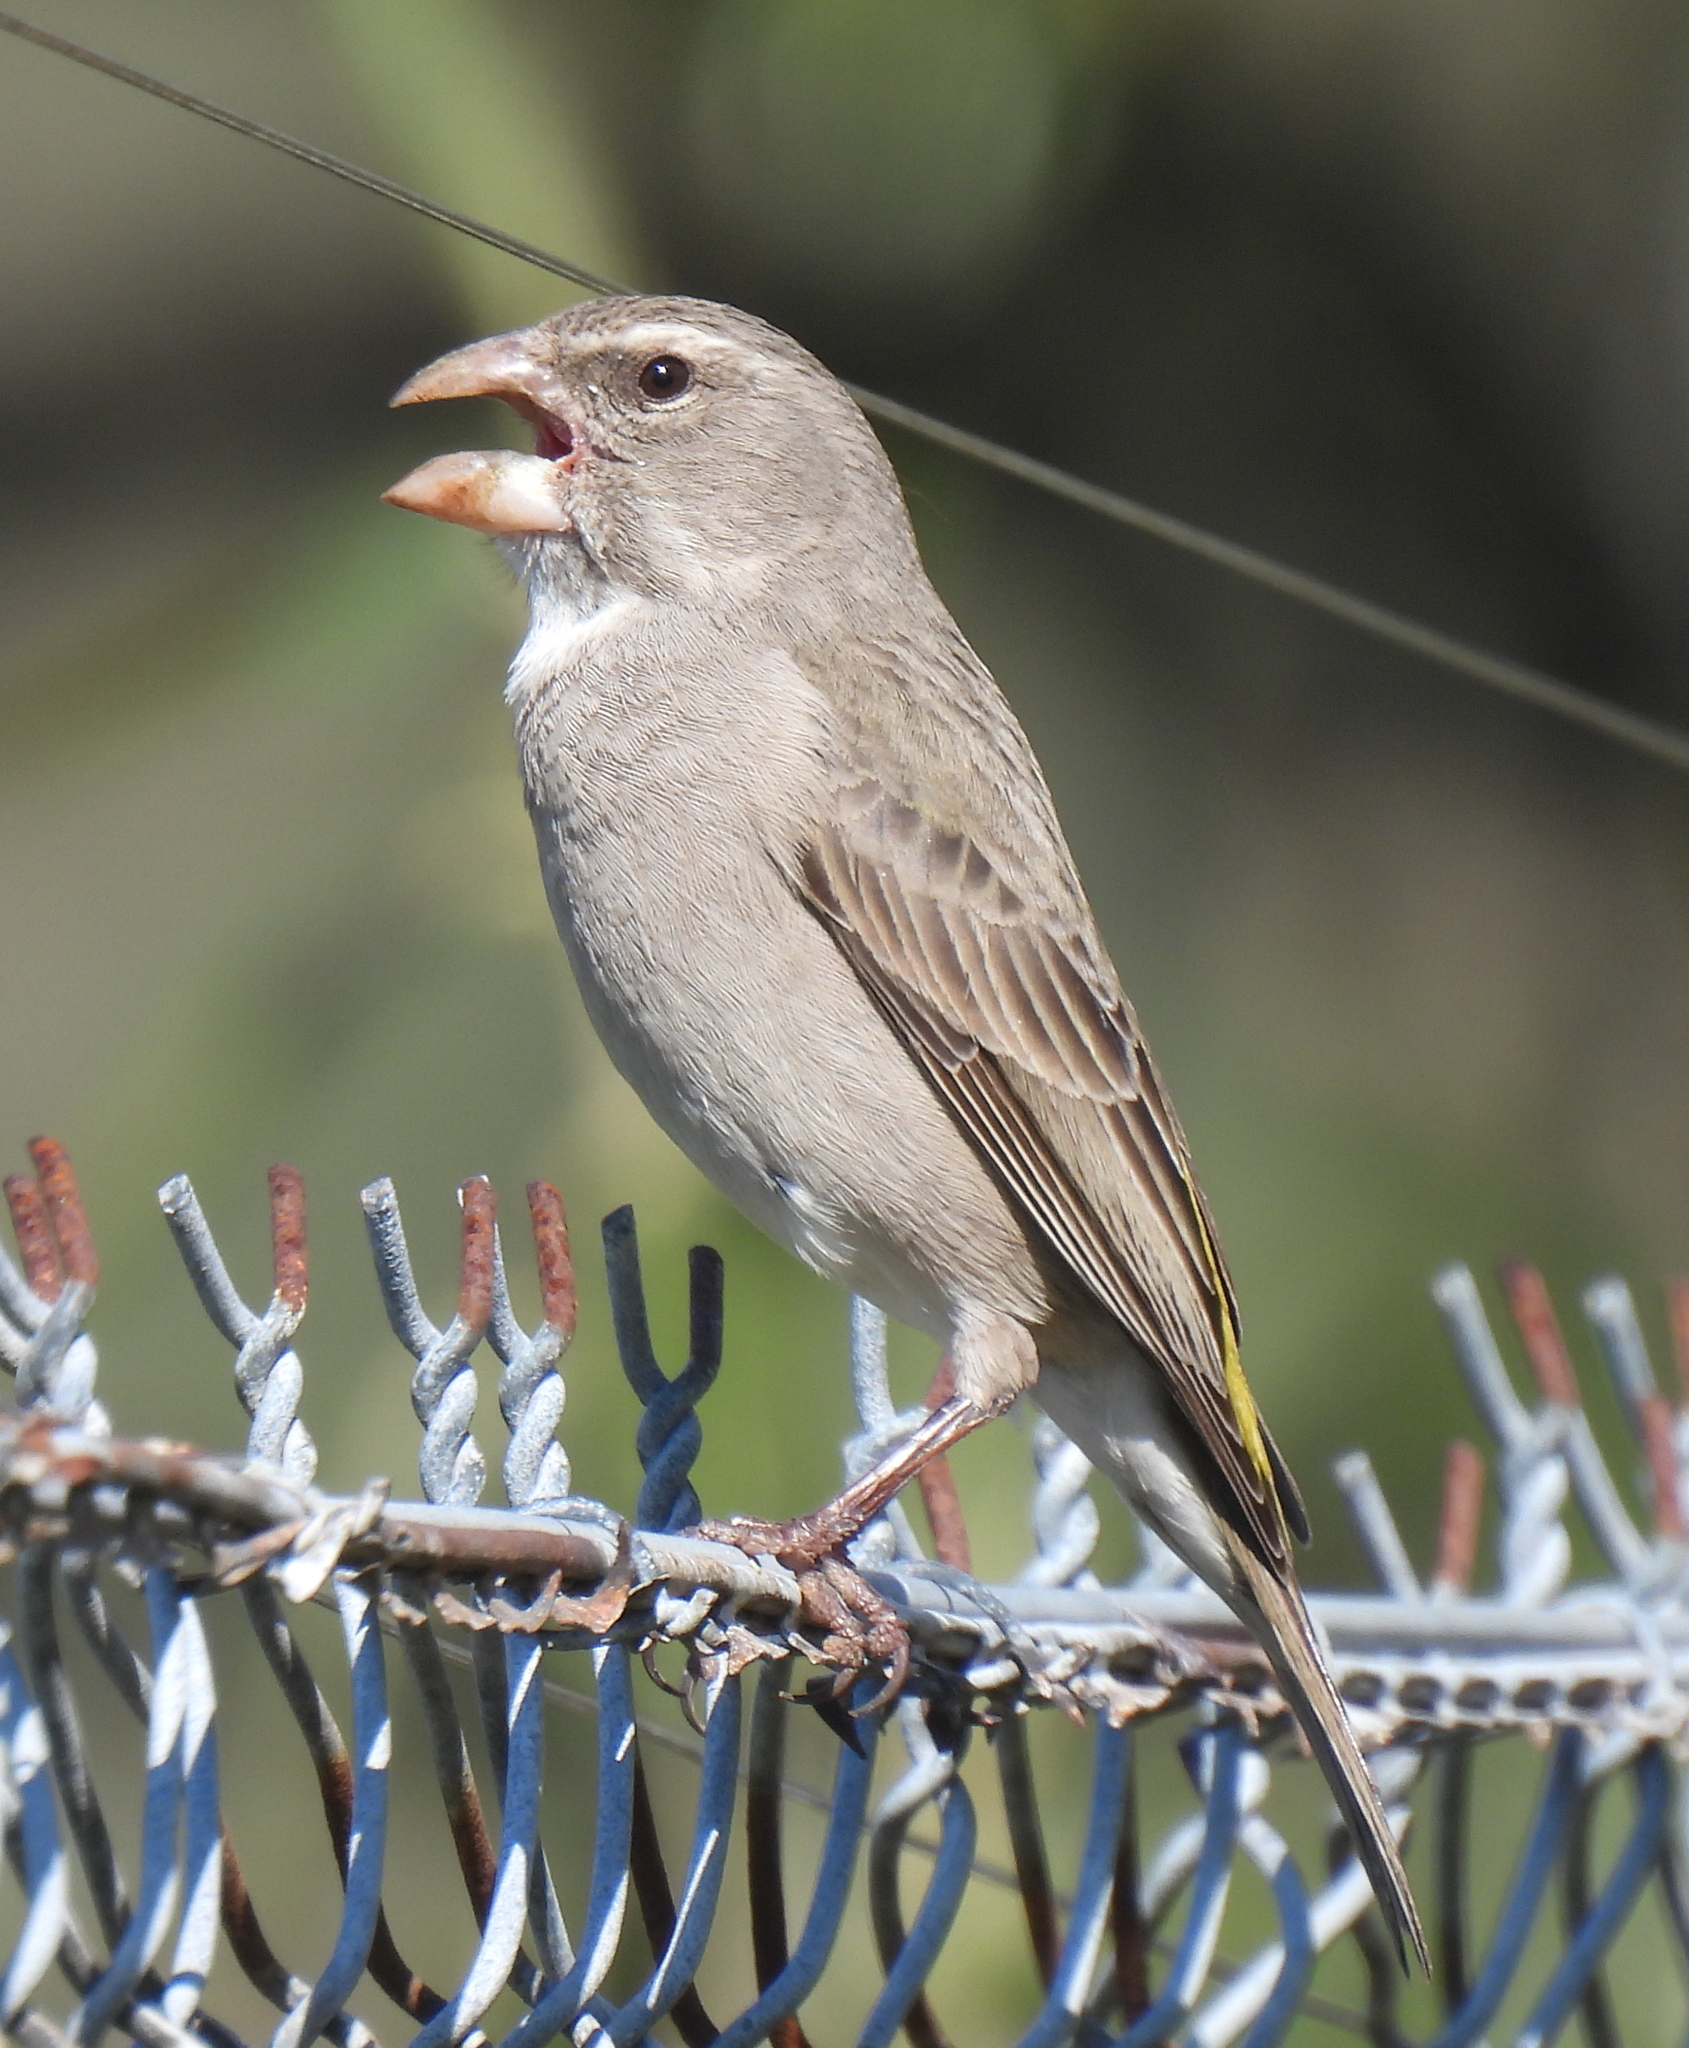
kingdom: Animalia
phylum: Chordata
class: Aves
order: Passeriformes
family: Fringillidae
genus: Crithagra
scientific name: Crithagra albogularis
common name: White-throated canary
